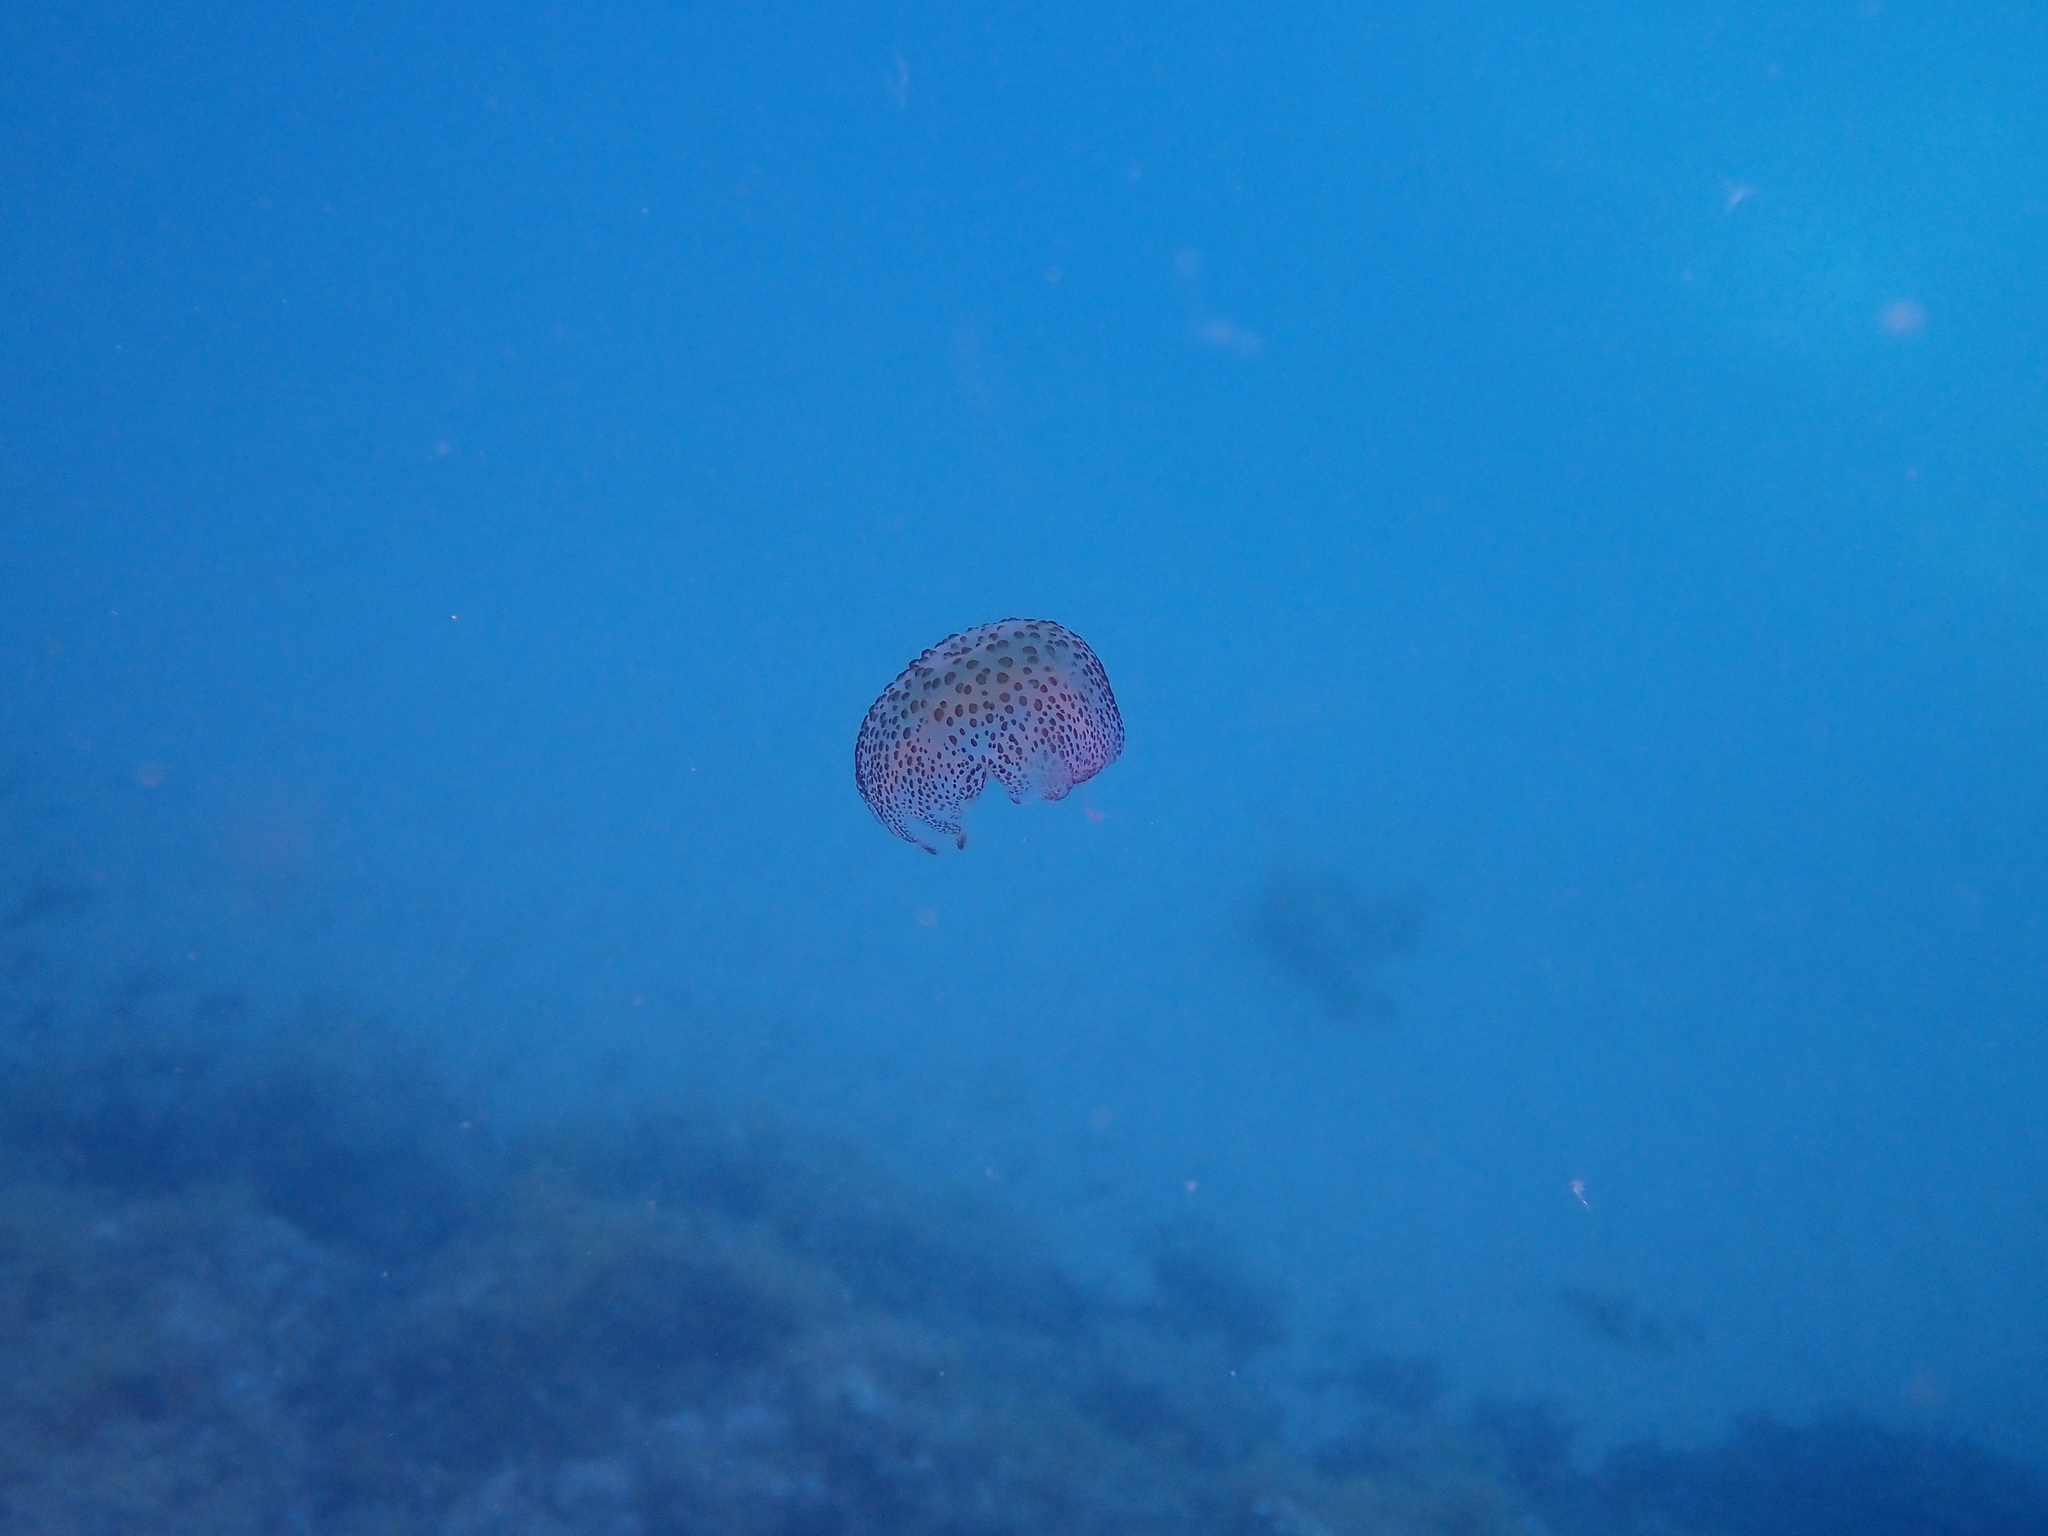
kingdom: Animalia
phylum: Cnidaria
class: Scyphozoa
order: Semaeostomeae
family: Pelagiidae
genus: Pelagia
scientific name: Pelagia noctiluca
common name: Mauve stinger
